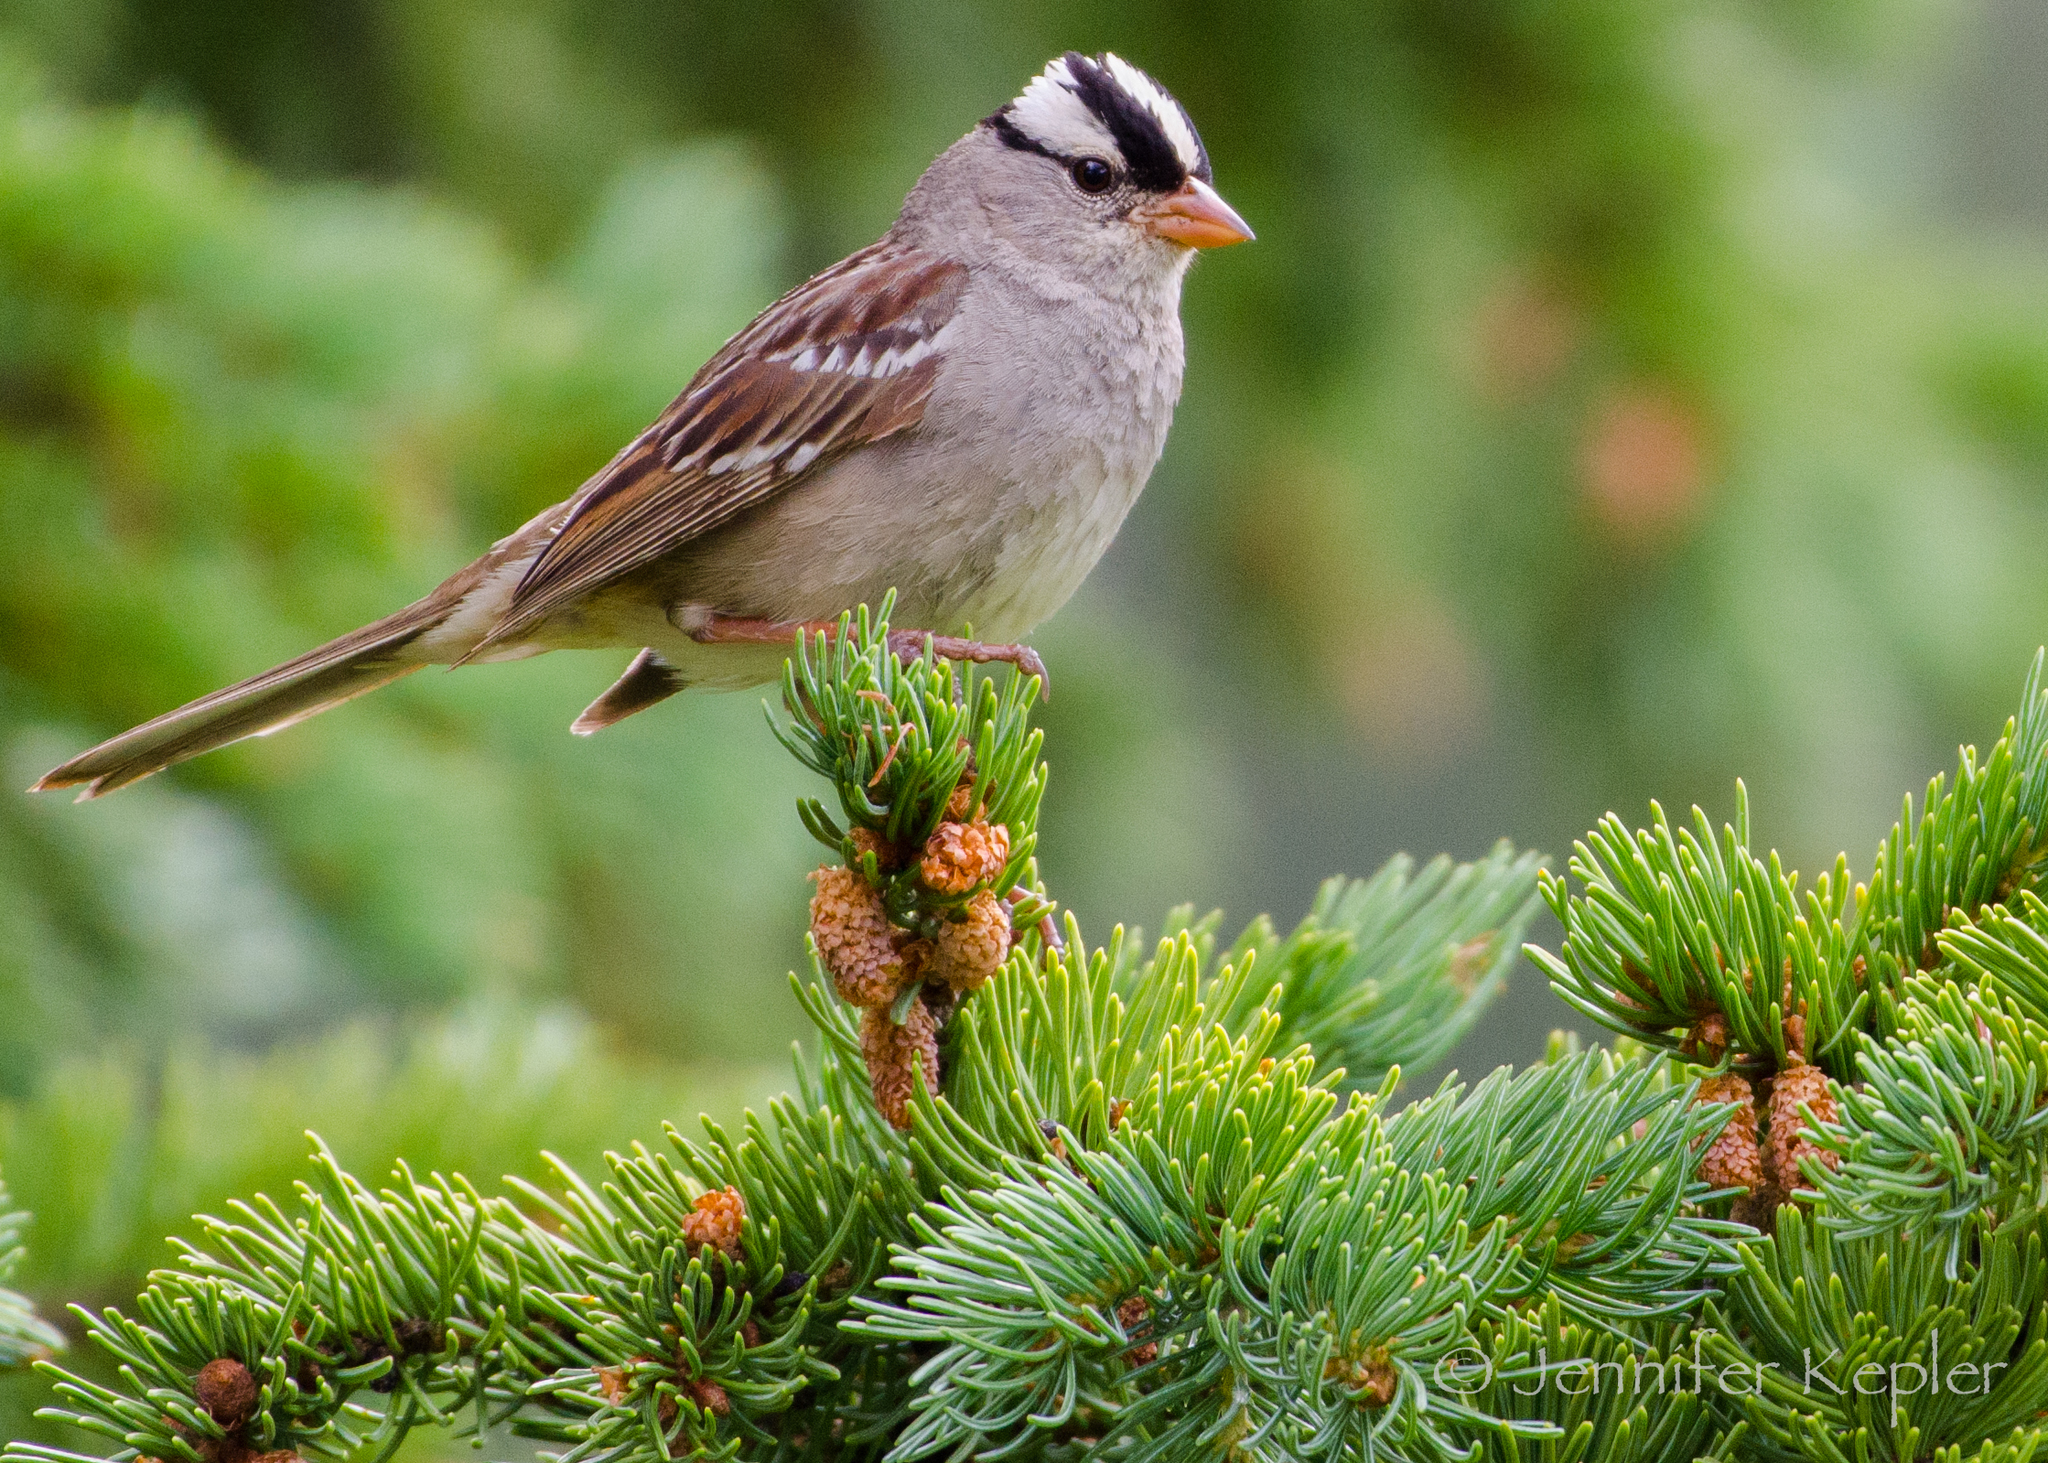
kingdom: Animalia
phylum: Chordata
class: Aves
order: Passeriformes
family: Passerellidae
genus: Zonotrichia
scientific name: Zonotrichia leucophrys
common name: White-crowned sparrow
